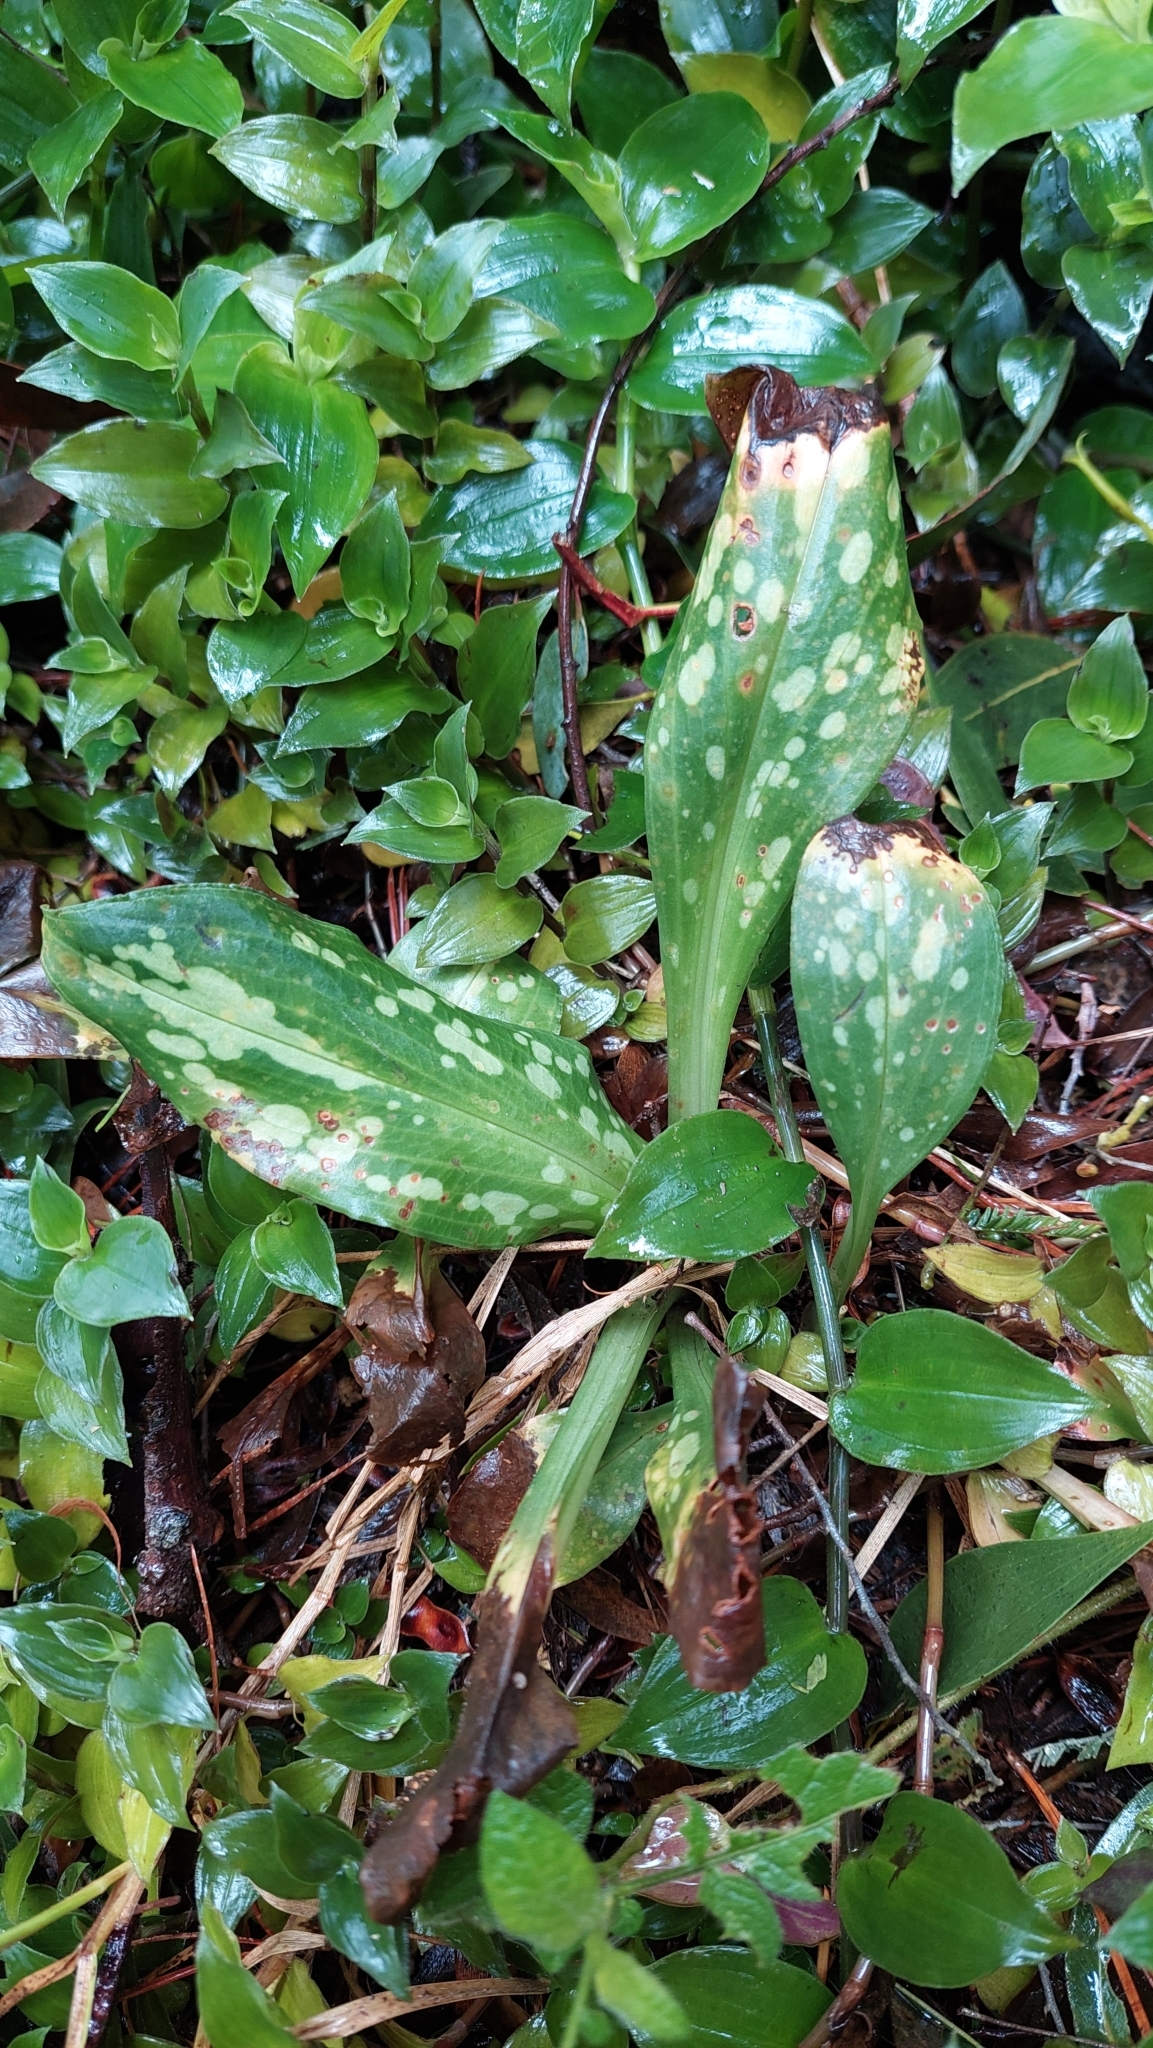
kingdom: Plantae
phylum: Tracheophyta
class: Liliopsida
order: Asparagales
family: Orchidaceae
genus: Stenorrhynchos
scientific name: Stenorrhynchos albidomaculatum
